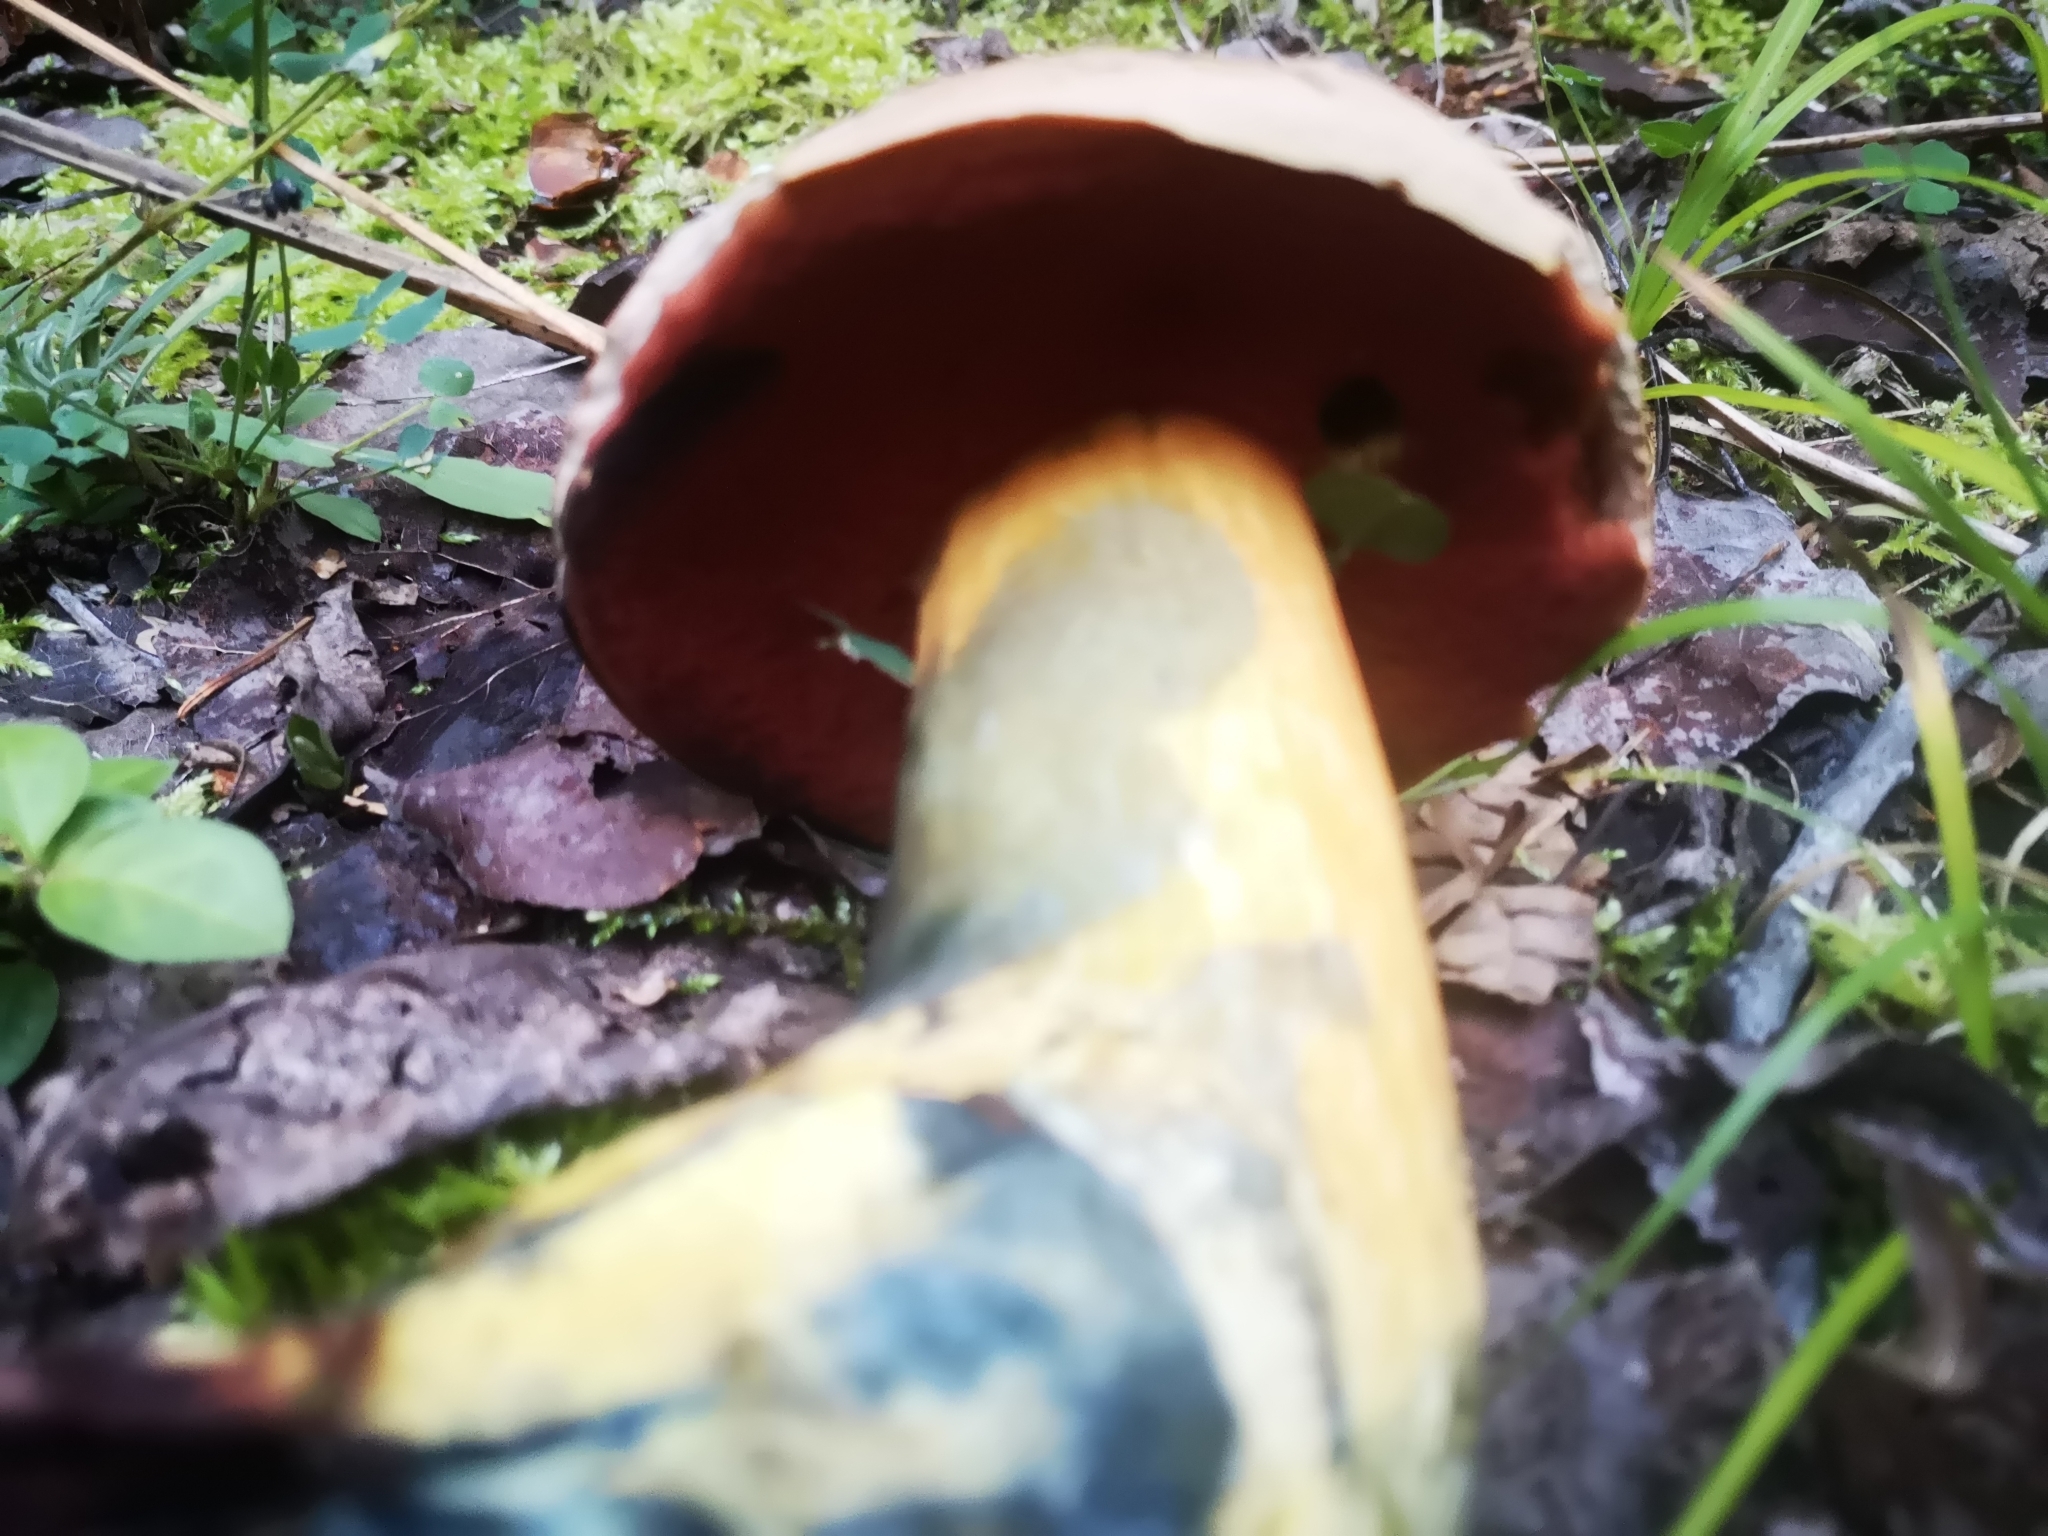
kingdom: Fungi
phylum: Basidiomycota
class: Agaricomycetes
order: Boletales
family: Boletaceae
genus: Suillellus
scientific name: Suillellus luridus
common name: Lurid bolete
